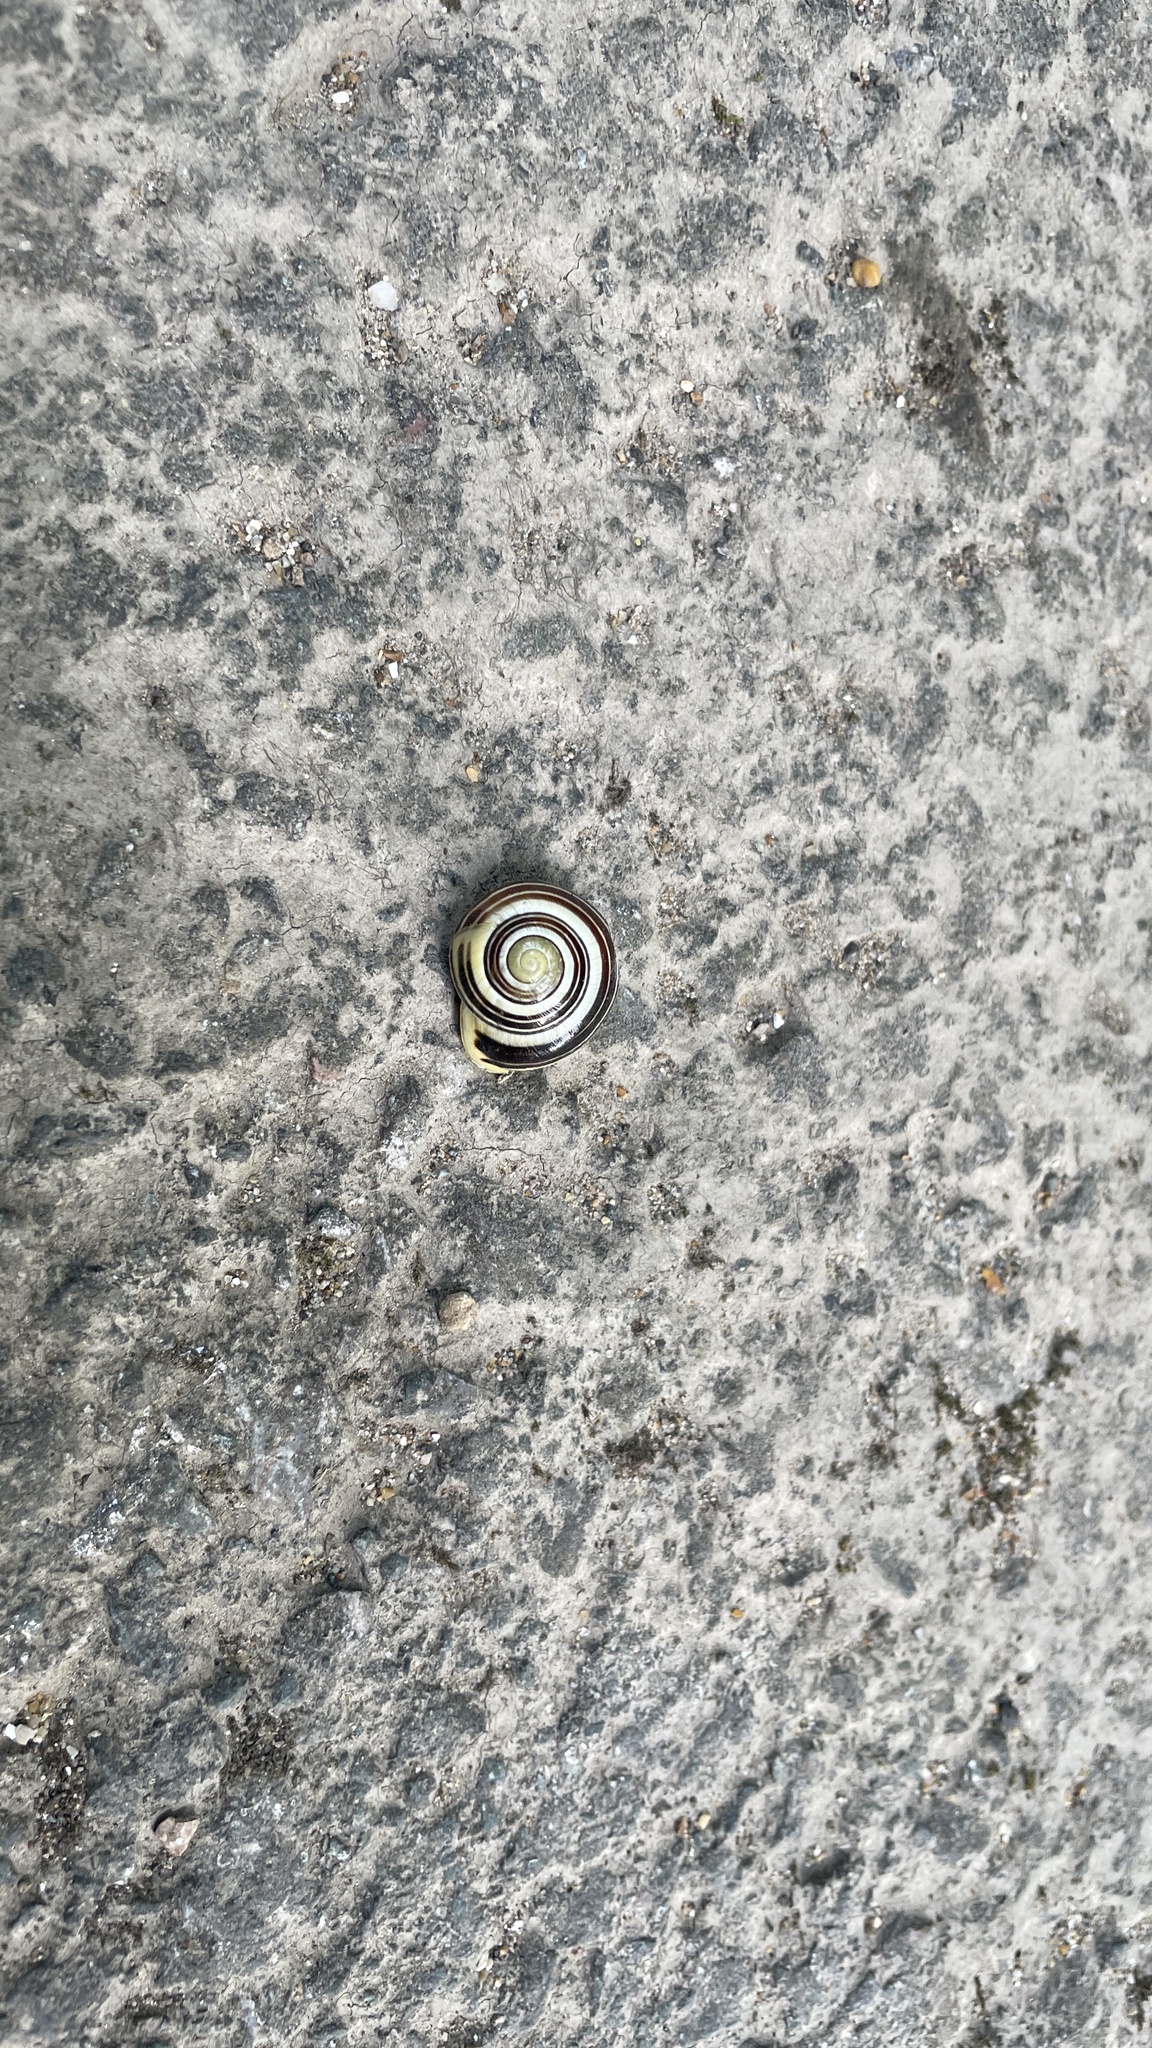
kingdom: Animalia
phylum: Mollusca
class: Gastropoda
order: Stylommatophora
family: Helicidae
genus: Cepaea
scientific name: Cepaea hortensis
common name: White-lip gardensnail
